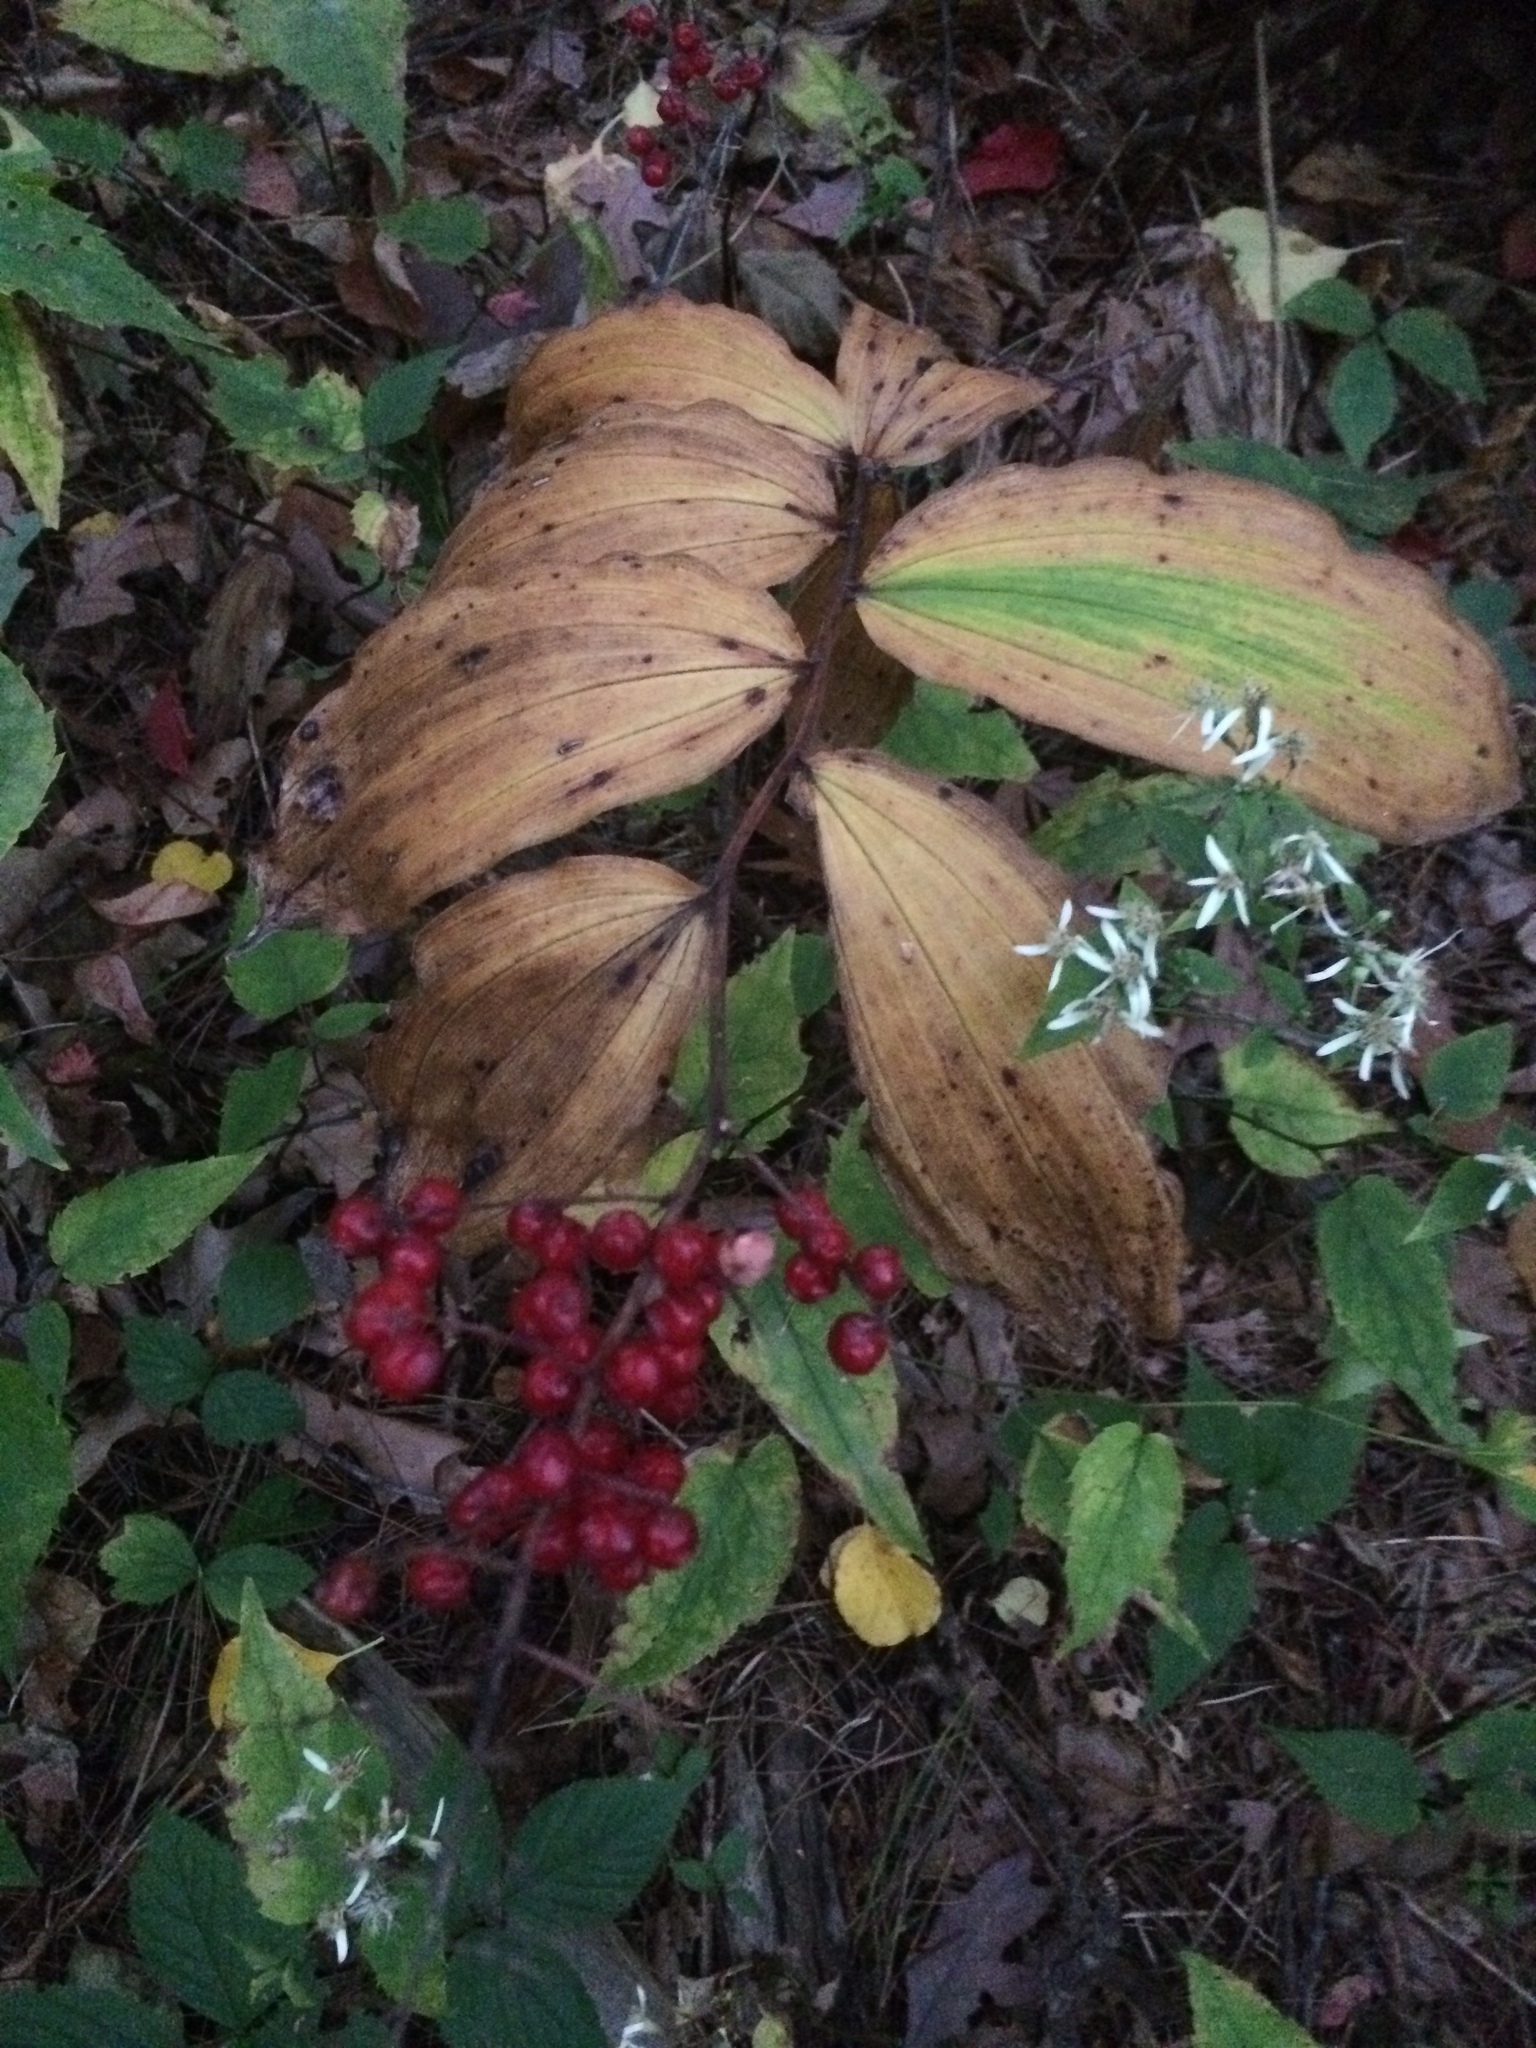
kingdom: Plantae
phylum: Tracheophyta
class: Liliopsida
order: Asparagales
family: Asparagaceae
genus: Maianthemum
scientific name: Maianthemum racemosum
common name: False spikenard
